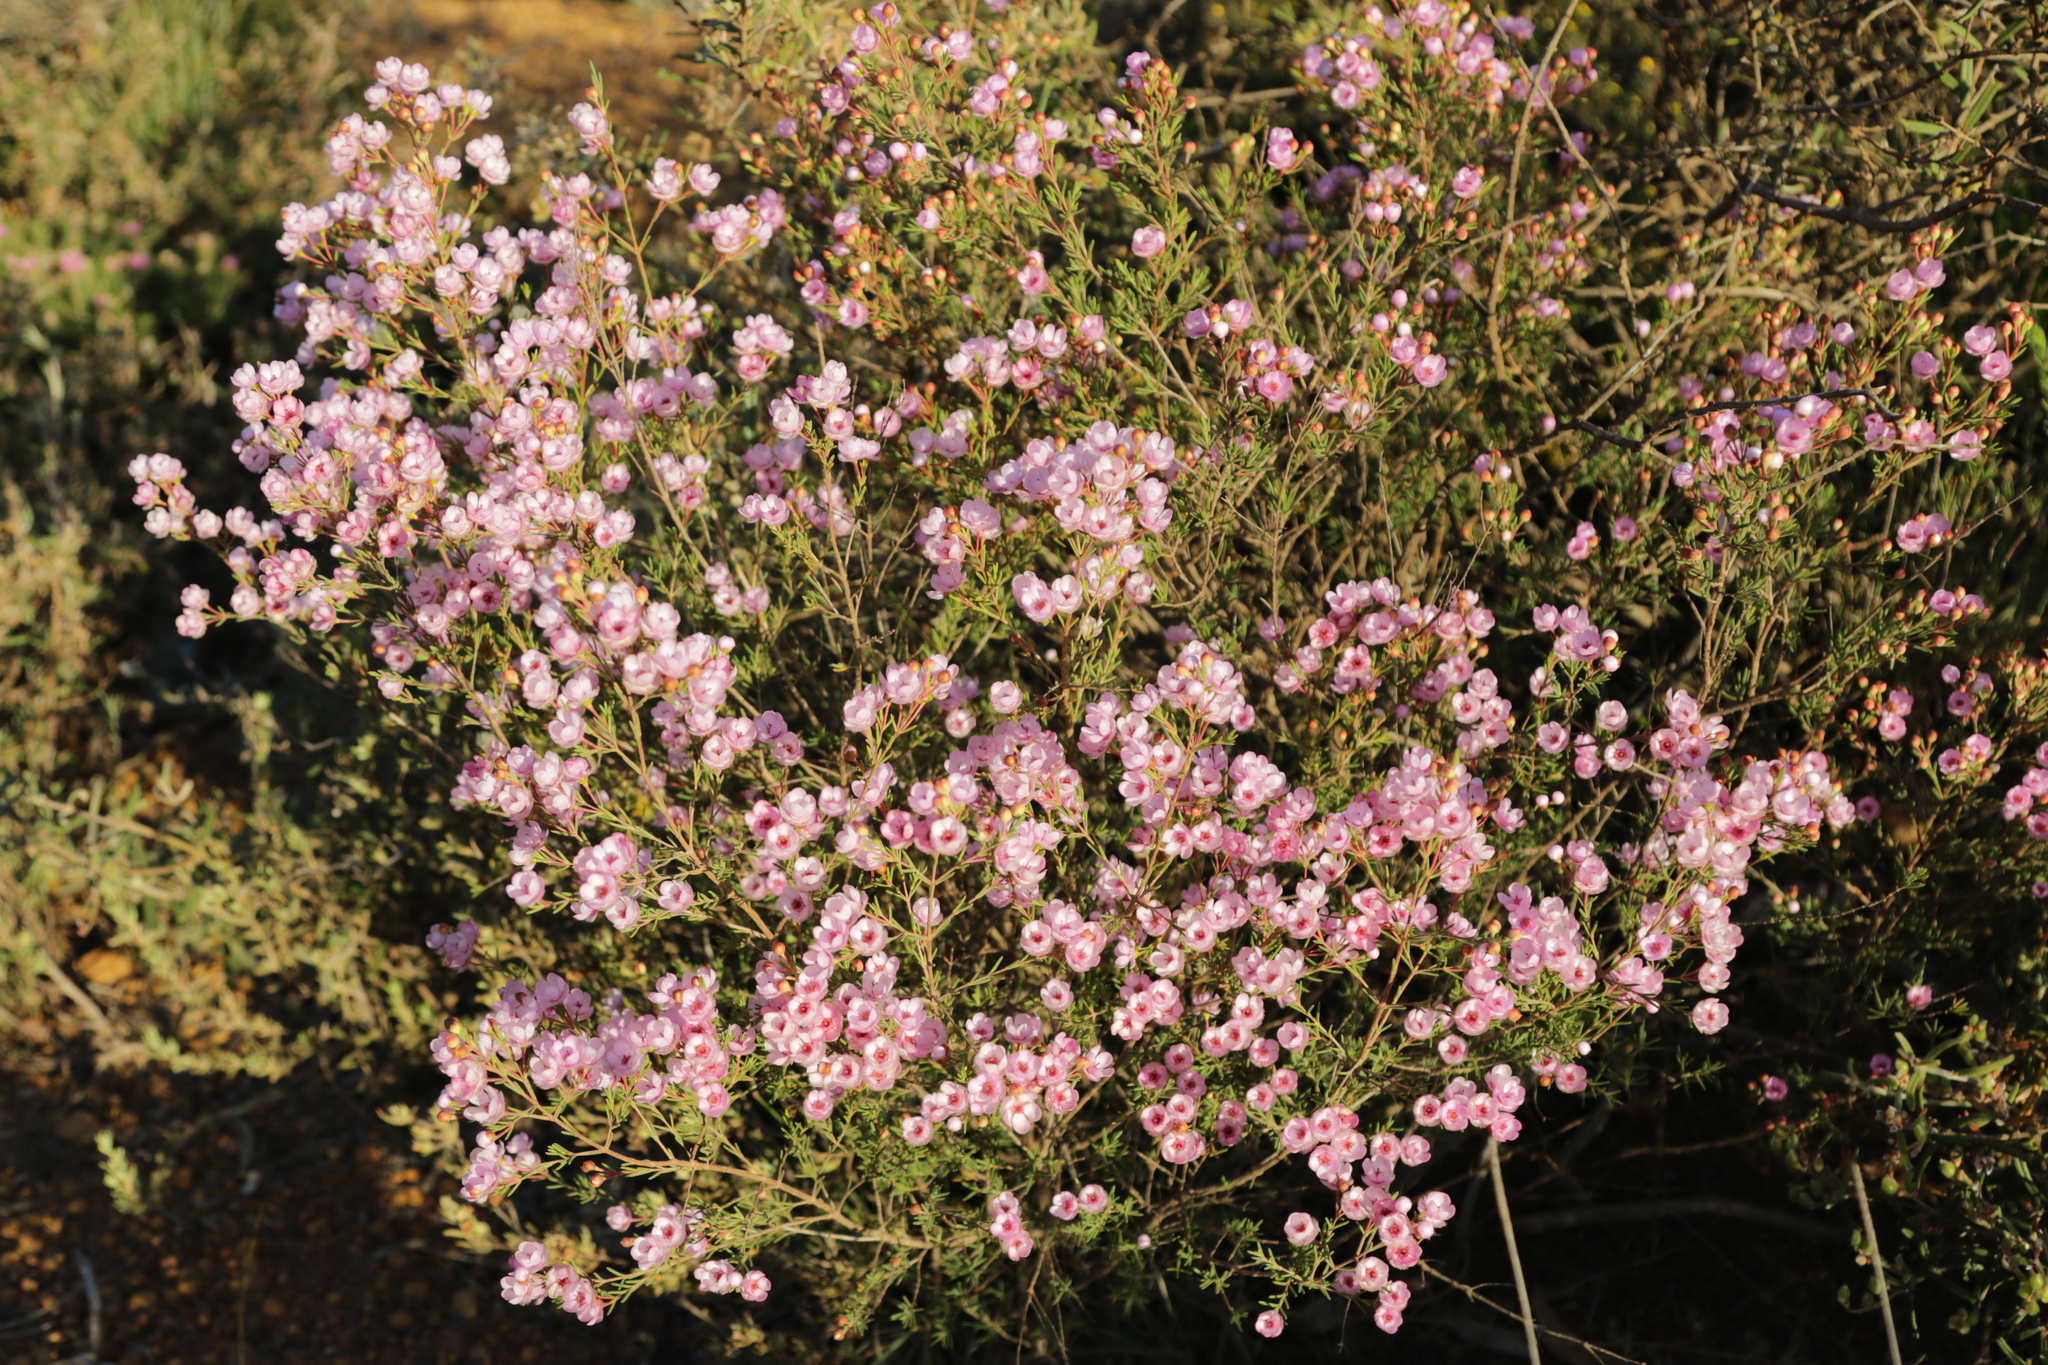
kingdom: Plantae
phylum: Tracheophyta
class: Magnoliopsida
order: Myrtales
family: Myrtaceae
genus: Verticordia
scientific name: Verticordia picta
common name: Painted feather-flower
